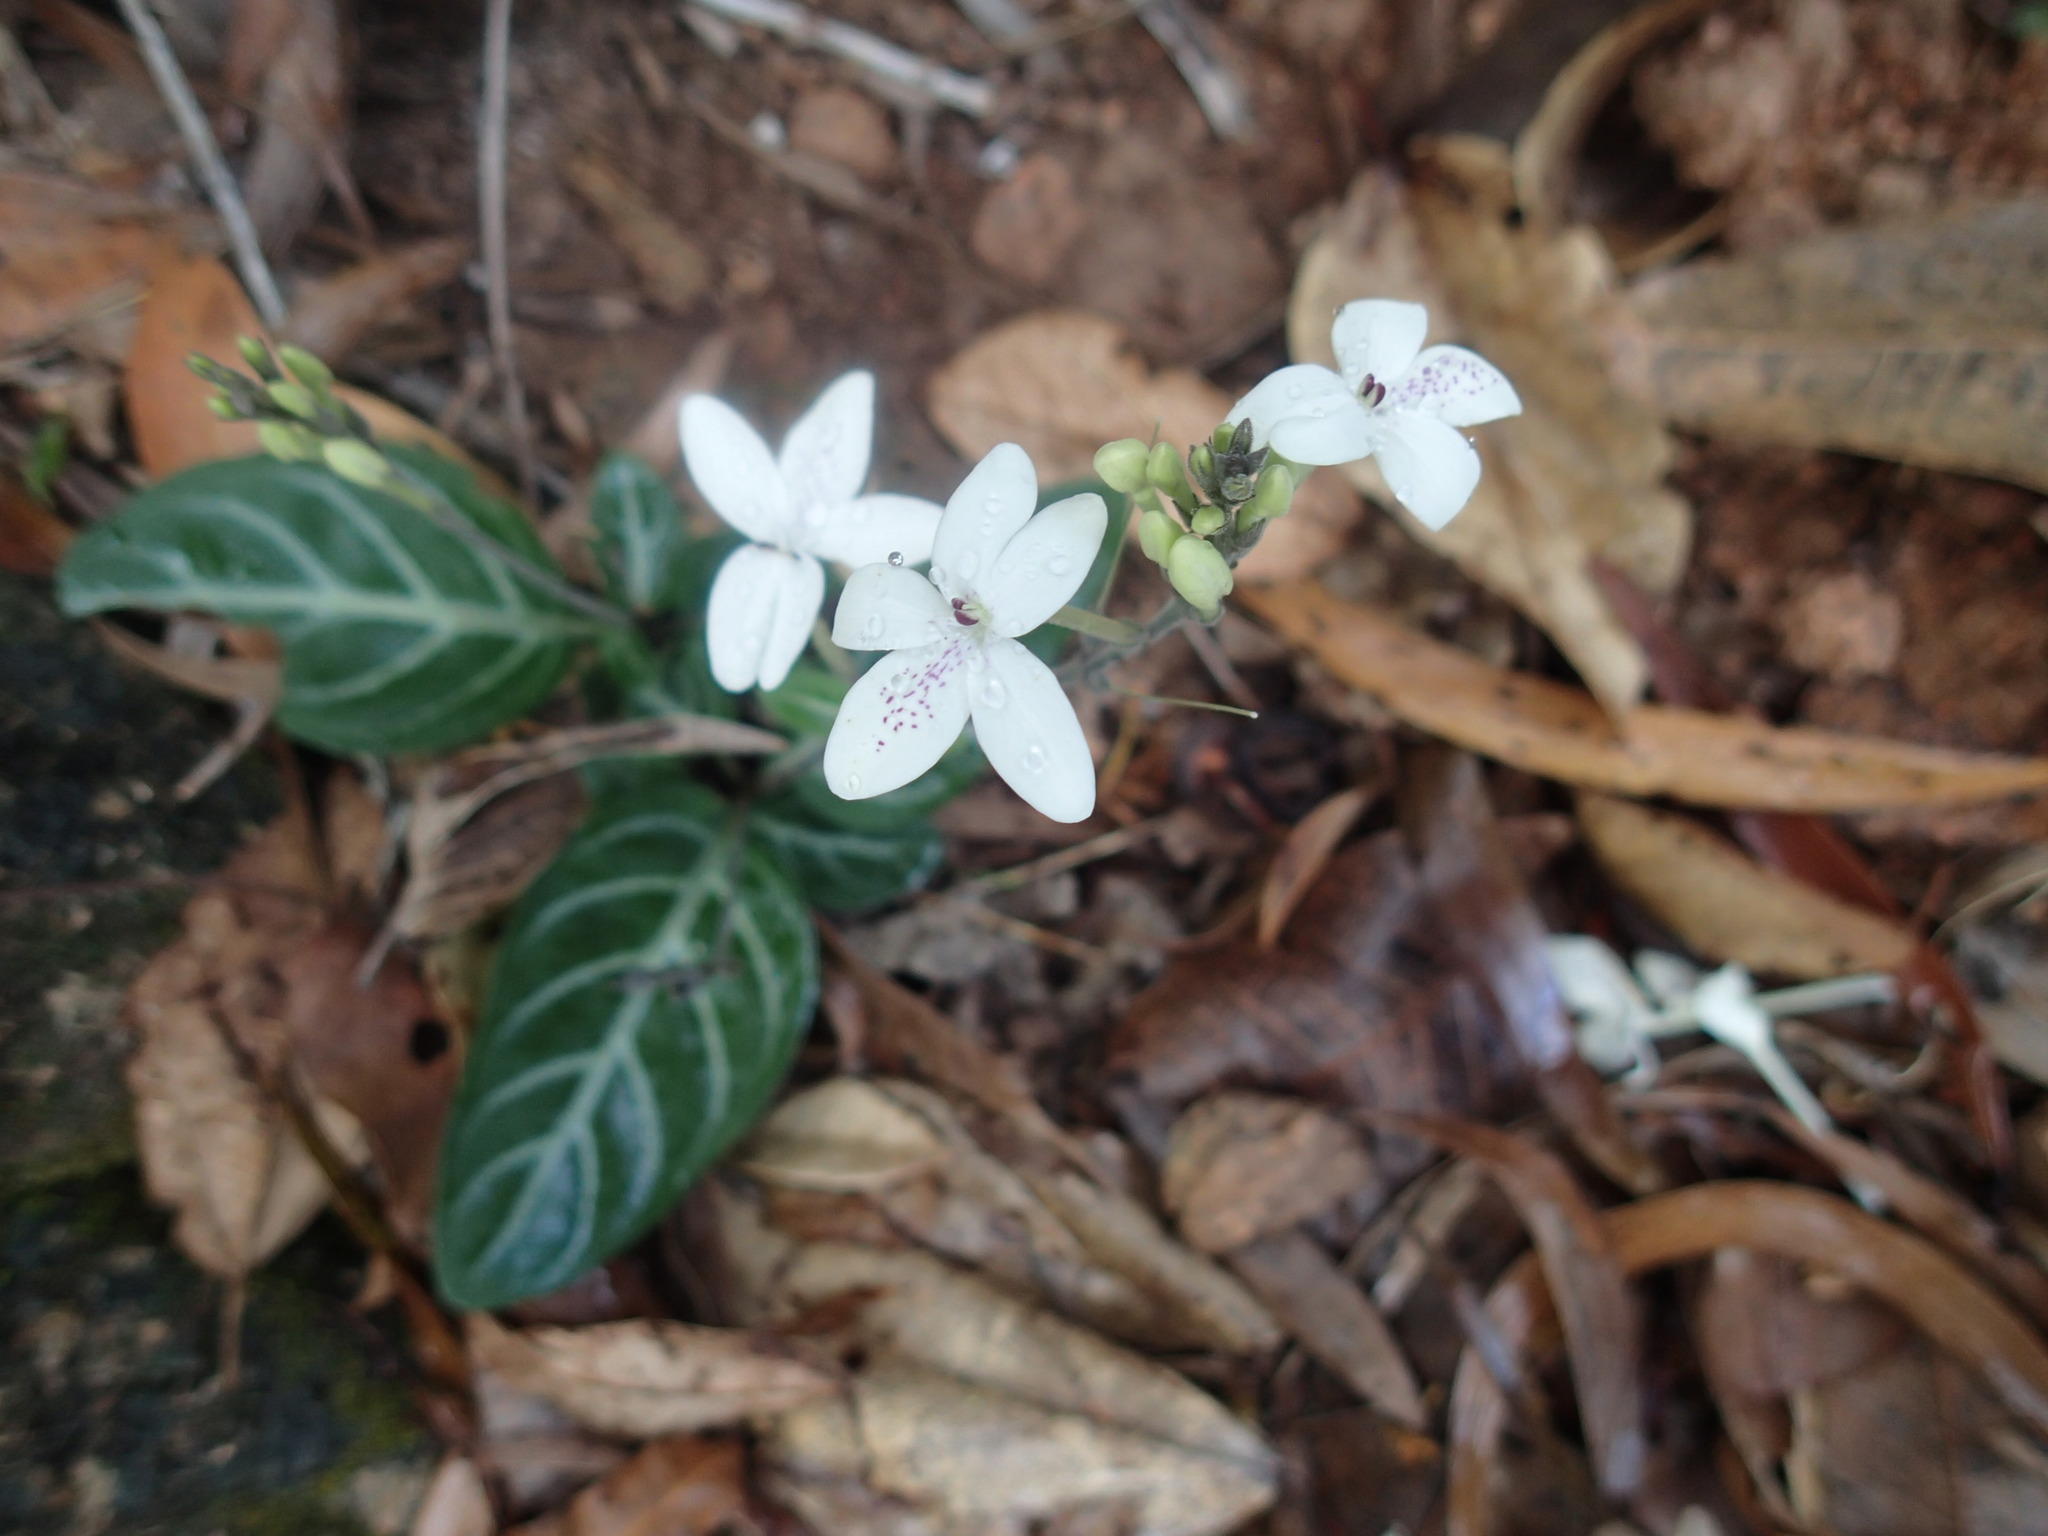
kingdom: Plantae
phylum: Tracheophyta
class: Magnoliopsida
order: Lamiales
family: Acanthaceae
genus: Pseuderanthemum
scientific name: Pseuderanthemum variabile
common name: Night and afternoon
